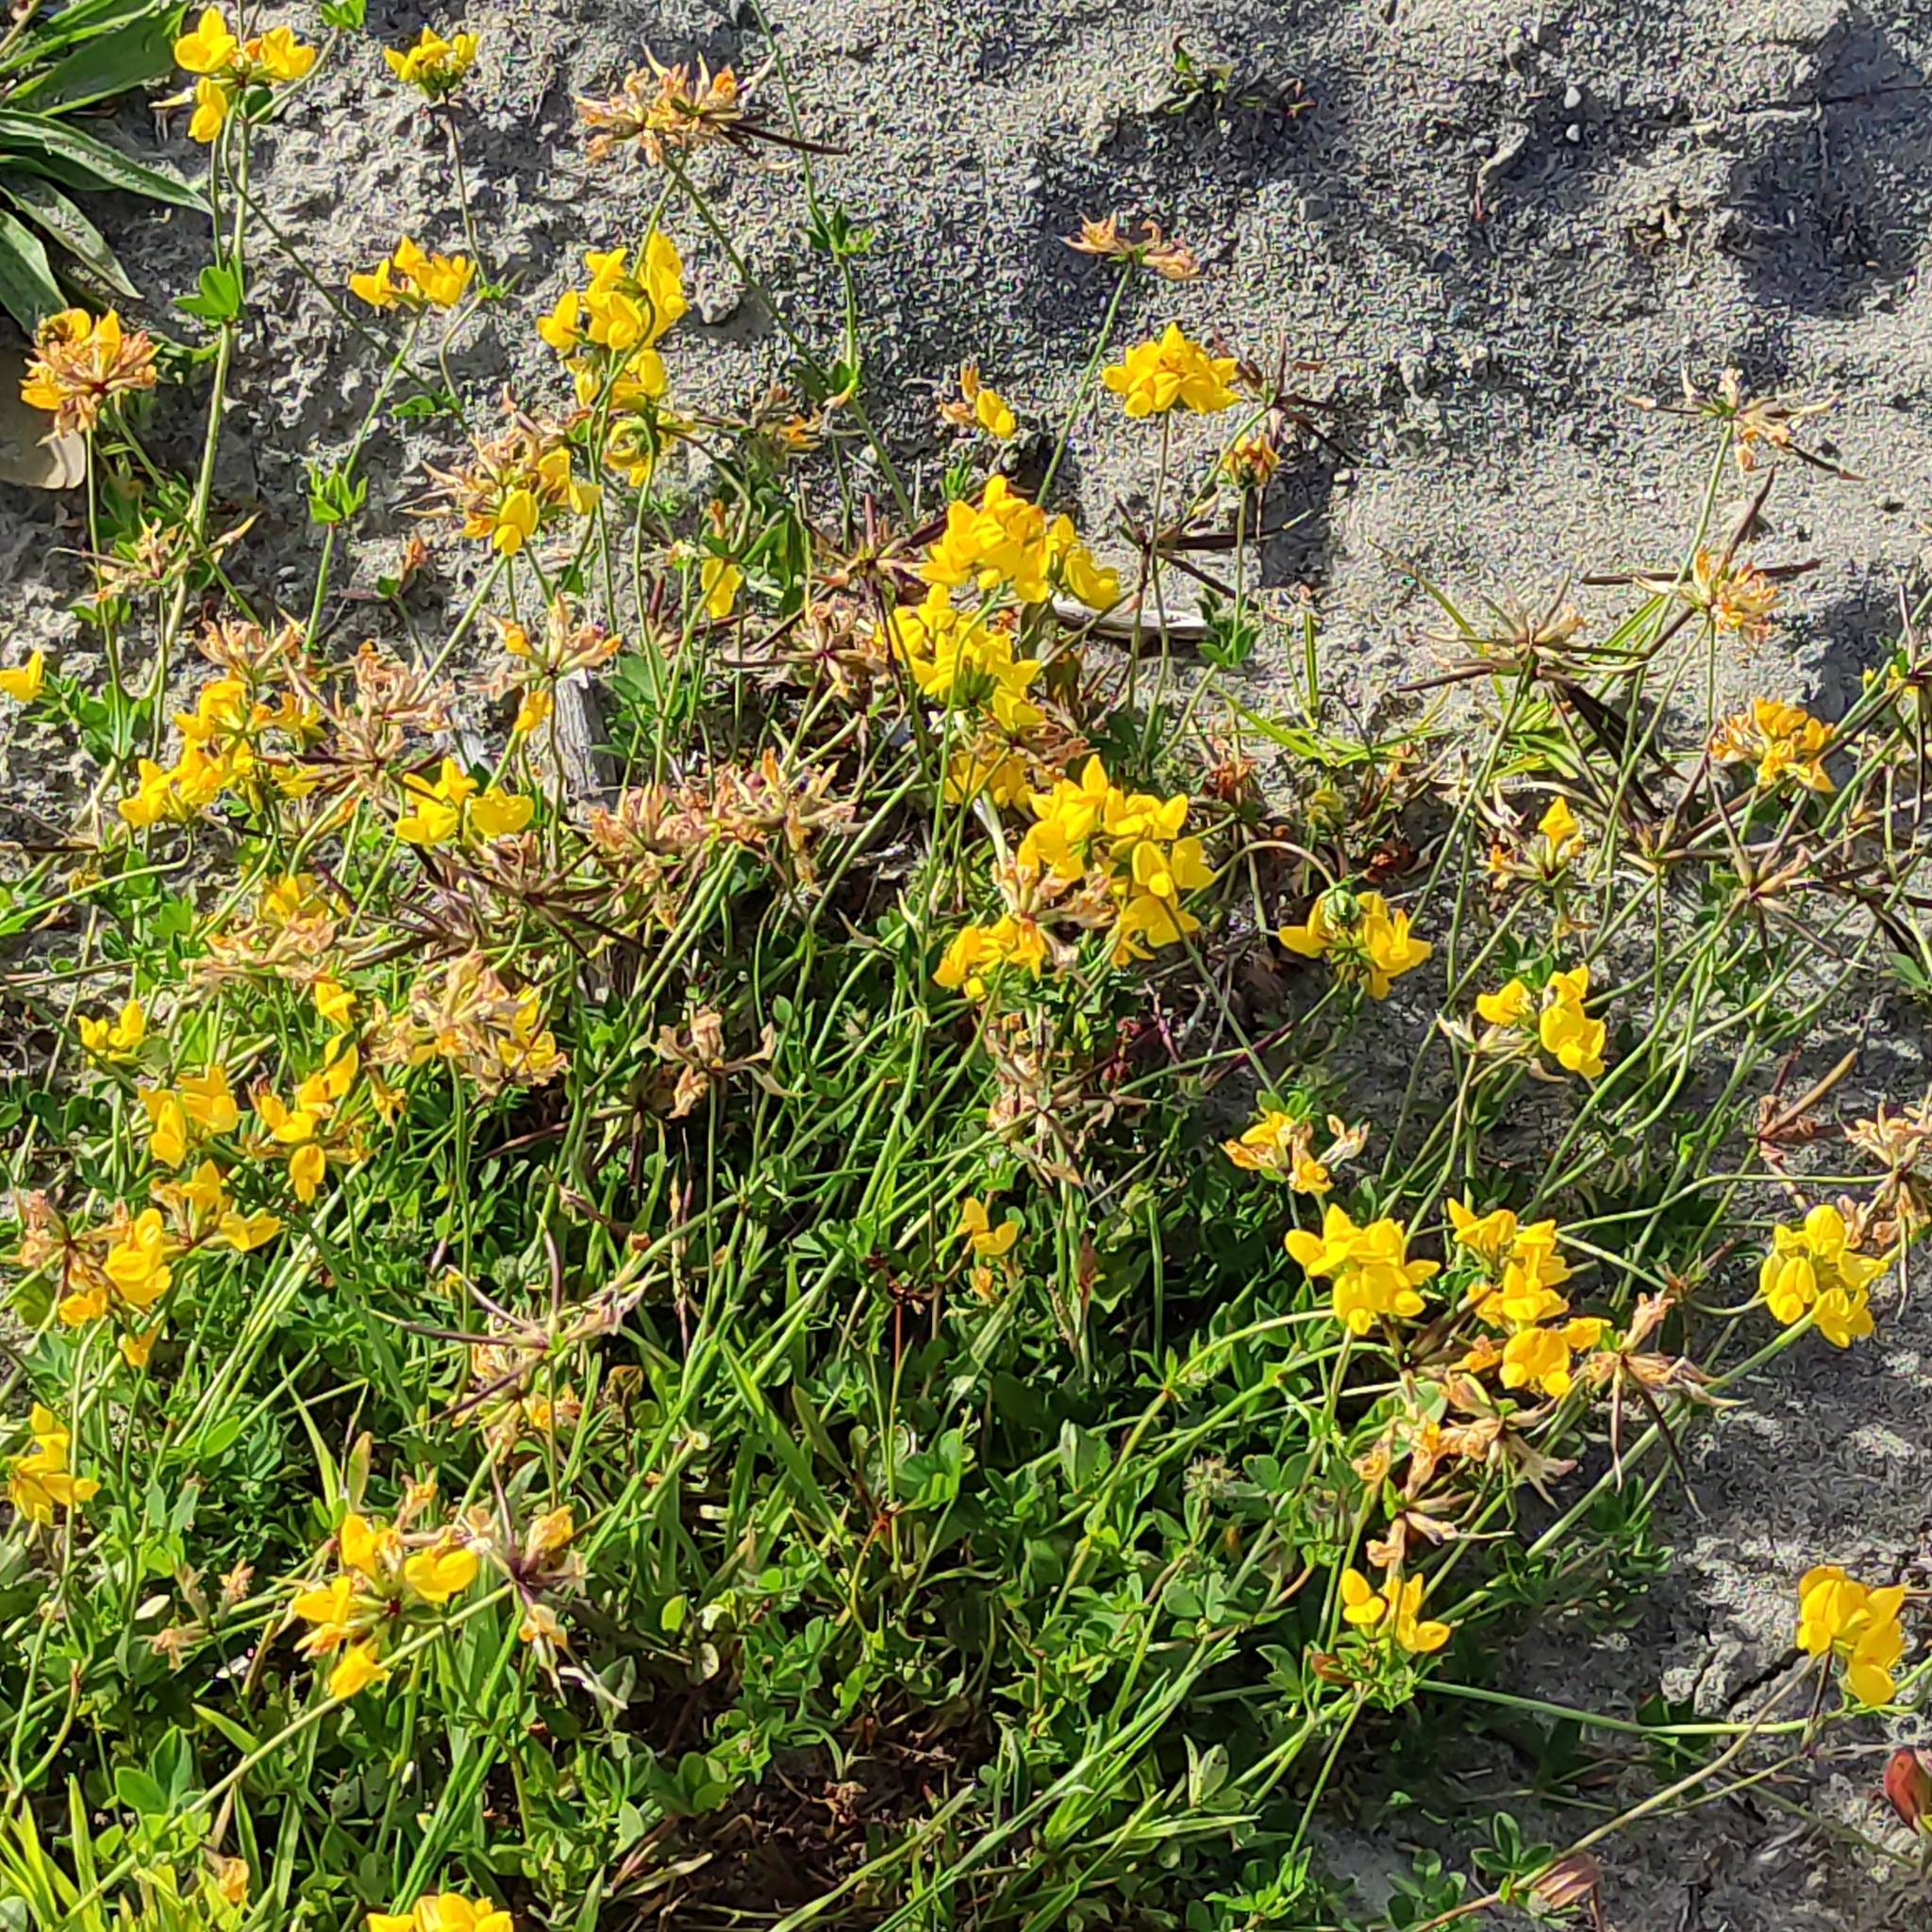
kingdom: Plantae
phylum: Tracheophyta
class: Magnoliopsida
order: Fabales
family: Fabaceae
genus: Lotus
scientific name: Lotus pedunculatus
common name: Greater birdsfoot-trefoil
